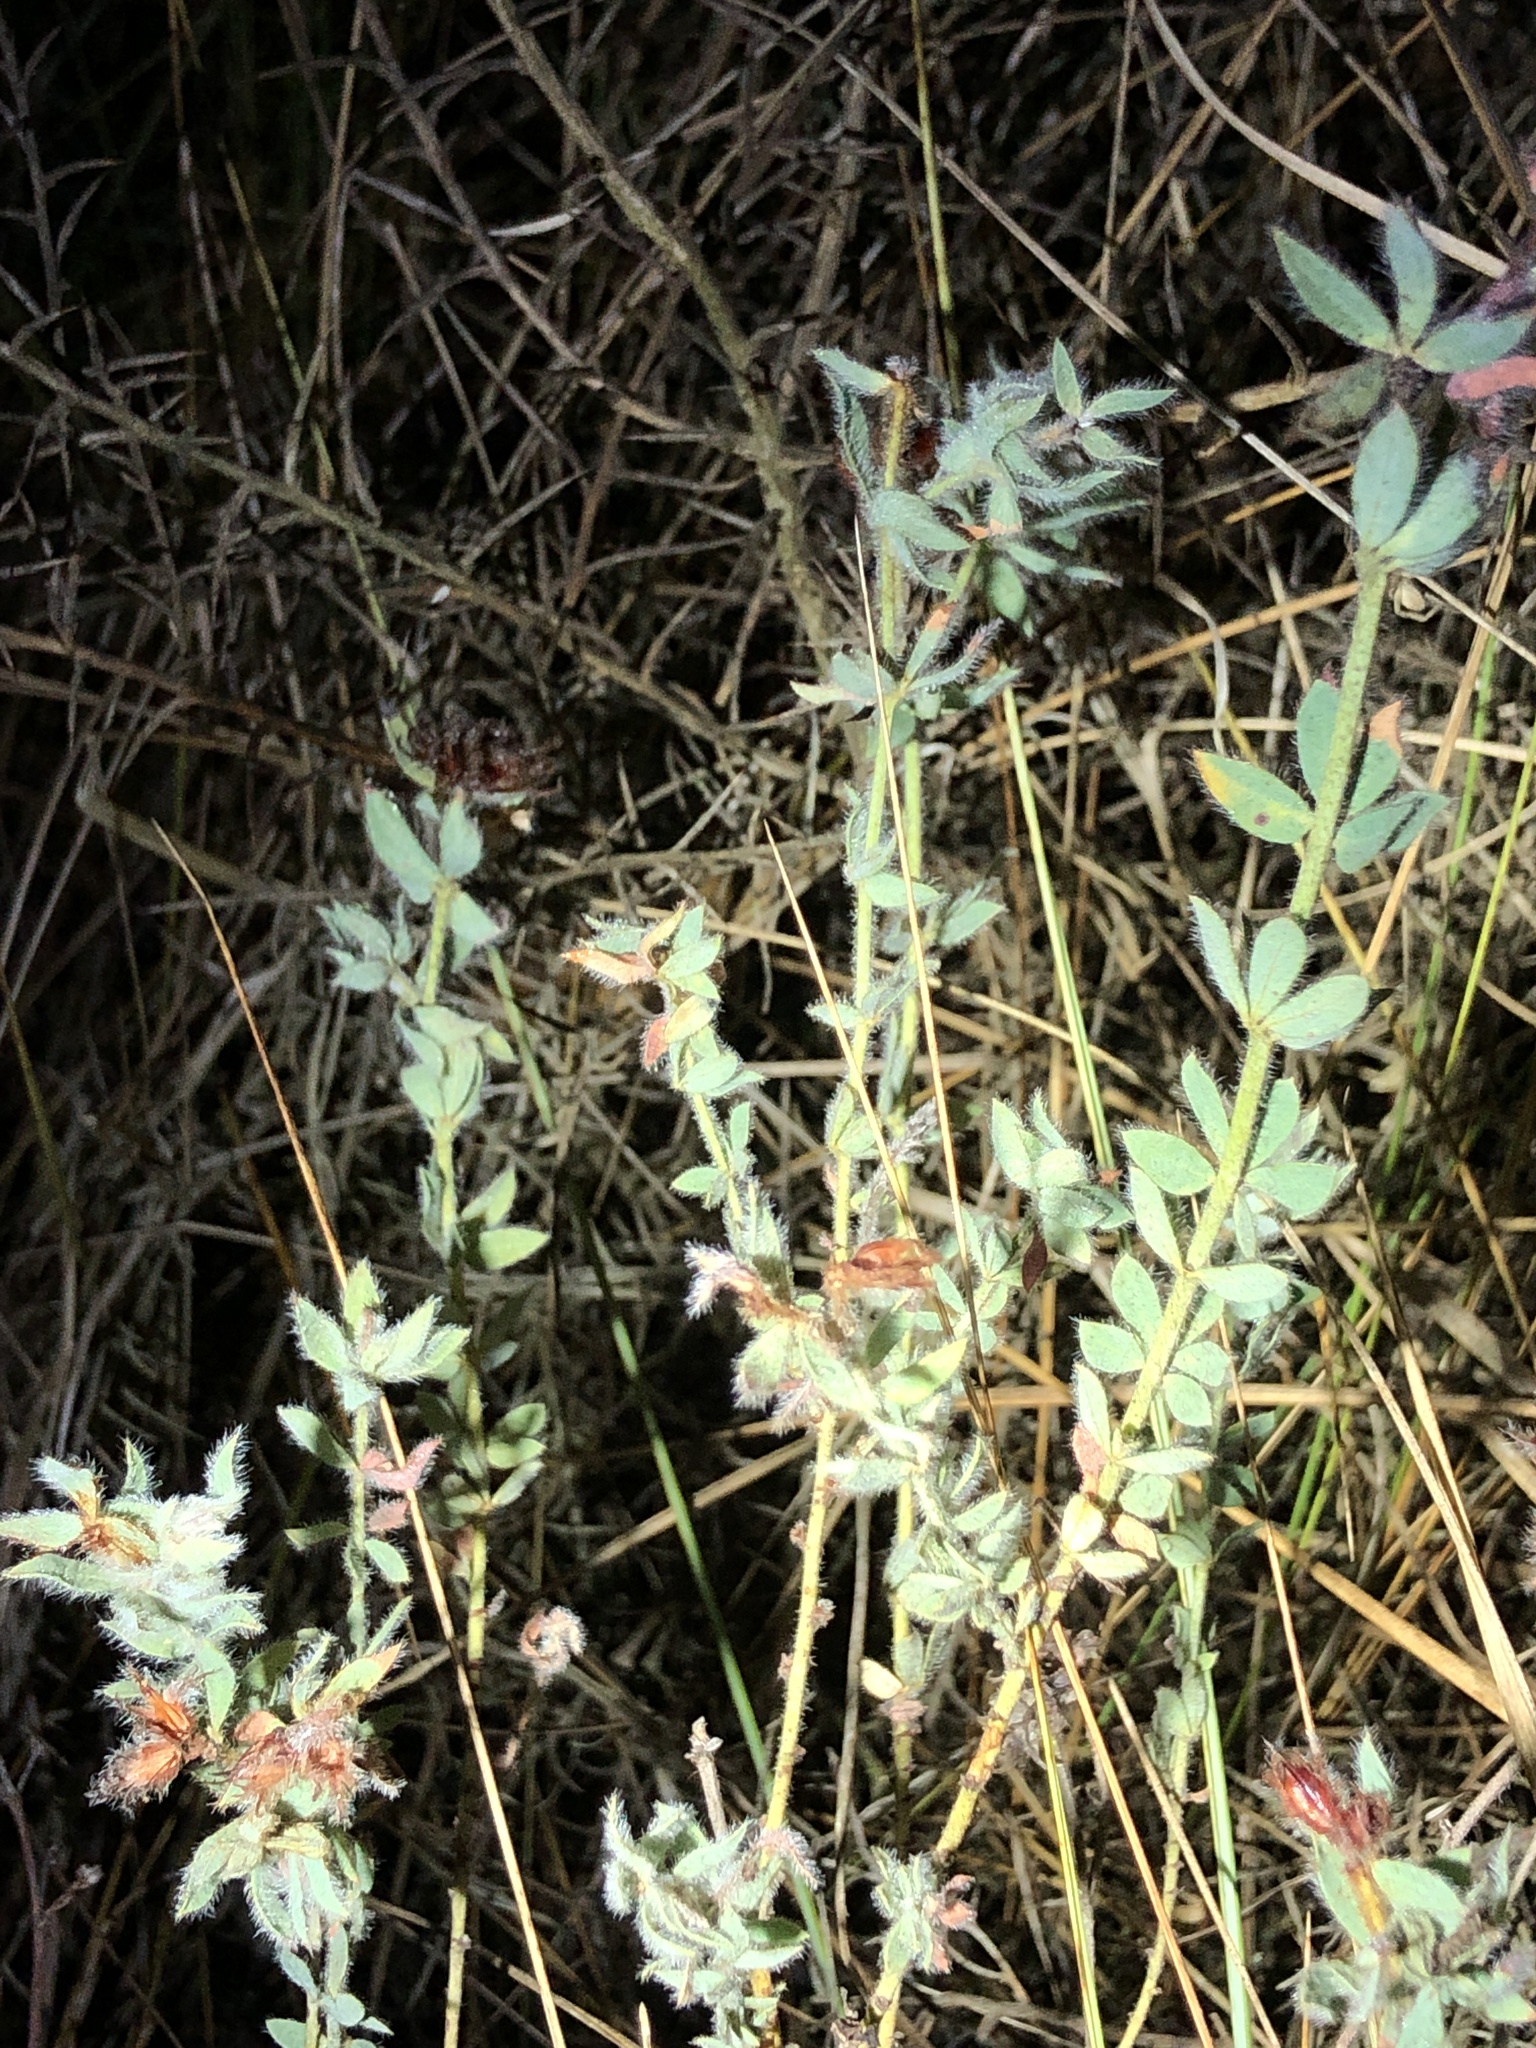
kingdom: Plantae
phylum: Tracheophyta
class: Magnoliopsida
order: Fabales
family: Fabaceae
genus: Lotus
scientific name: Lotus hirsutus
